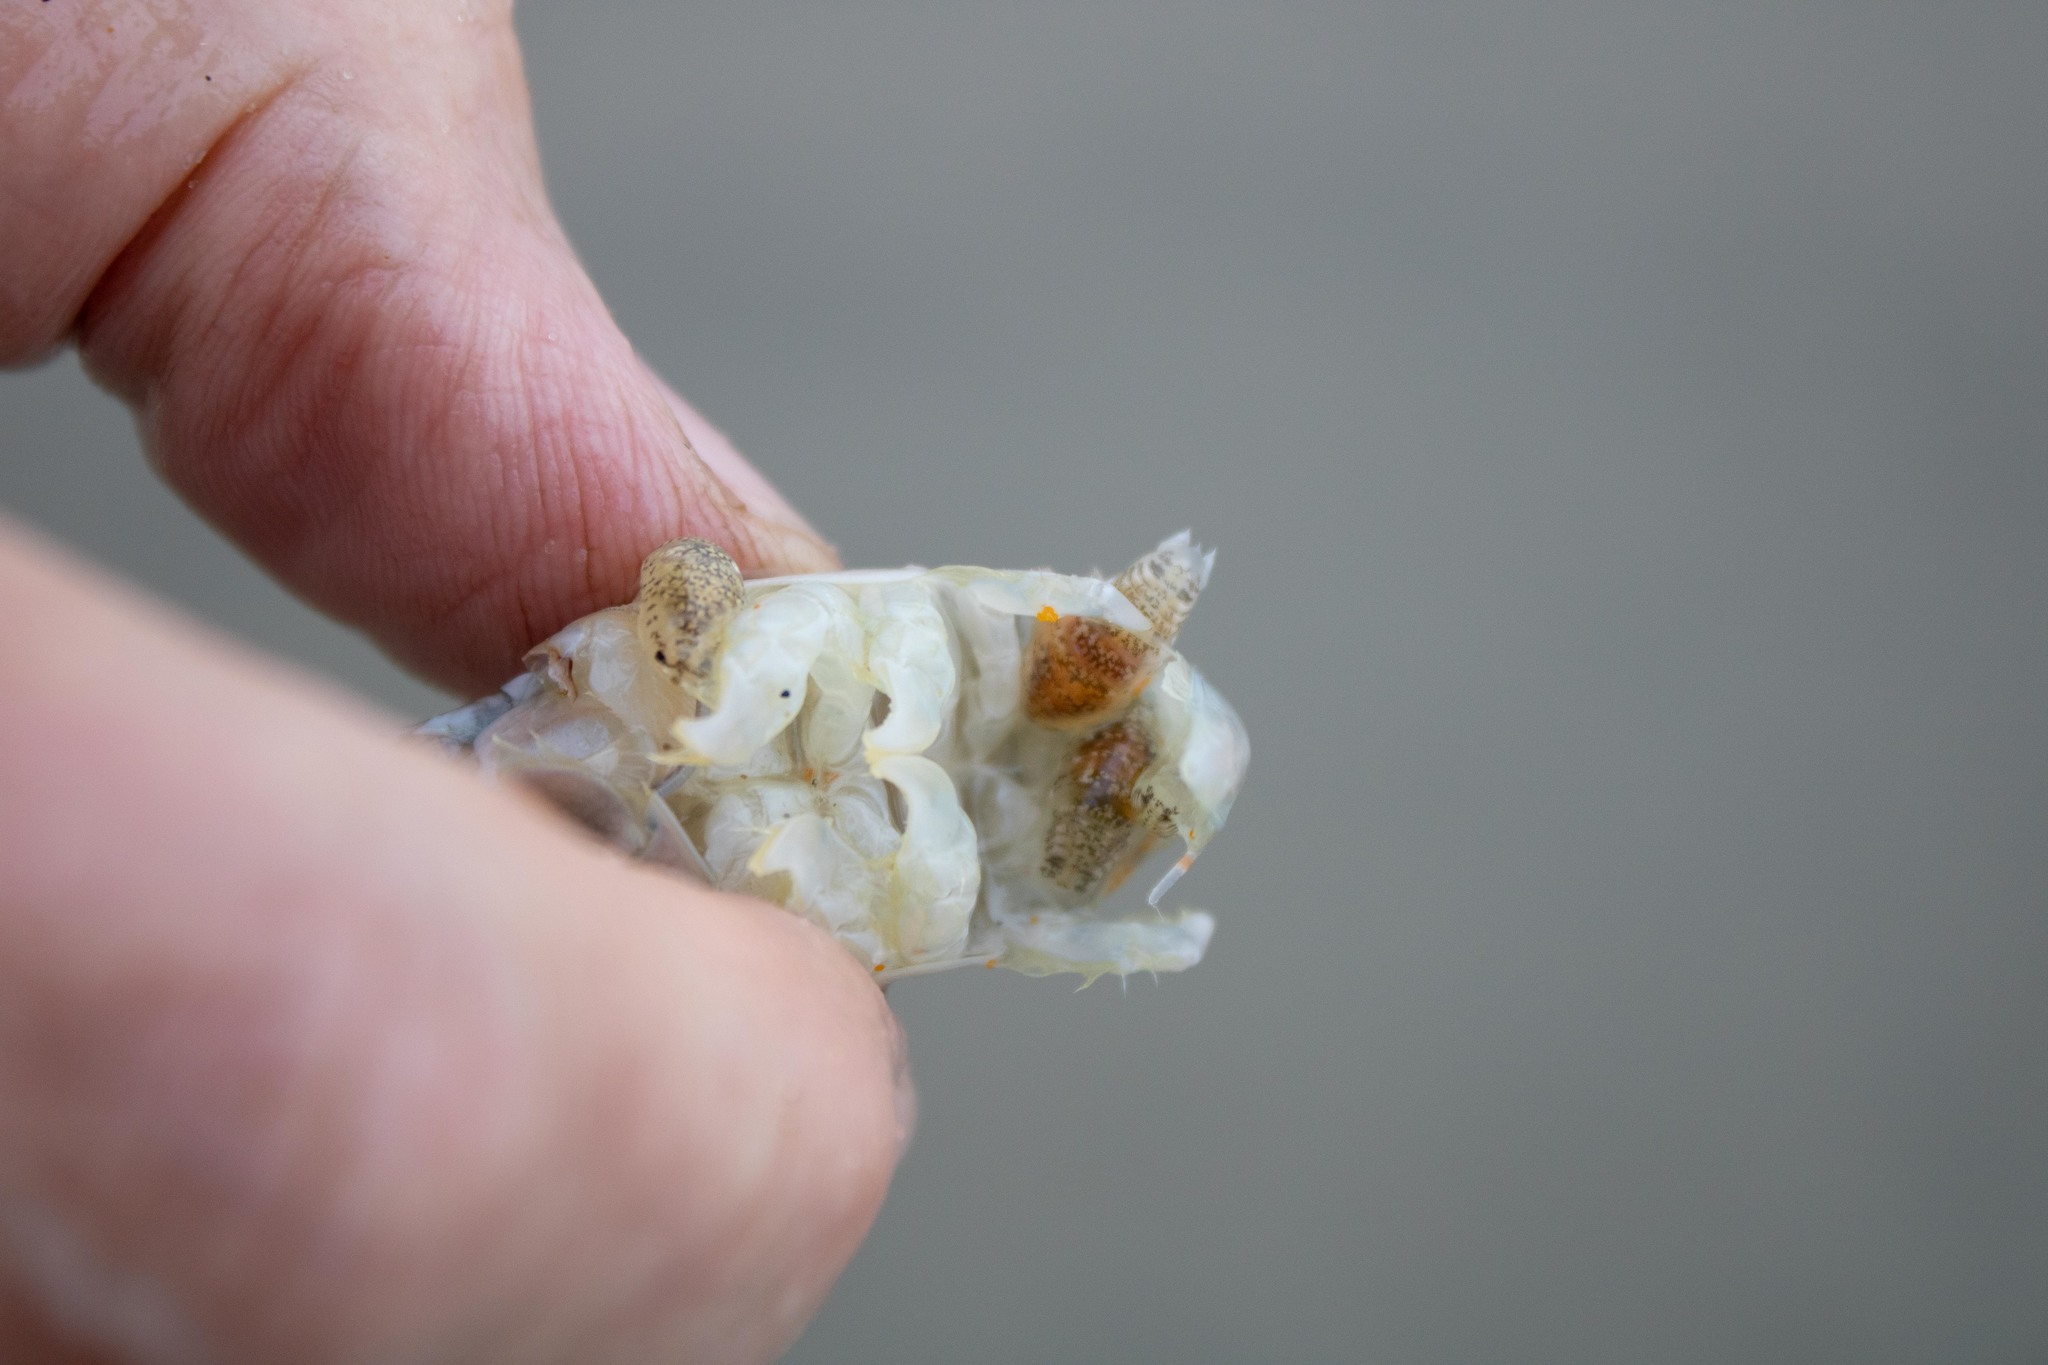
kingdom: Animalia
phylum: Arthropoda
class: Malacostraca
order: Decapoda
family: Hippidae
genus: Emerita
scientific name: Emerita analoga
